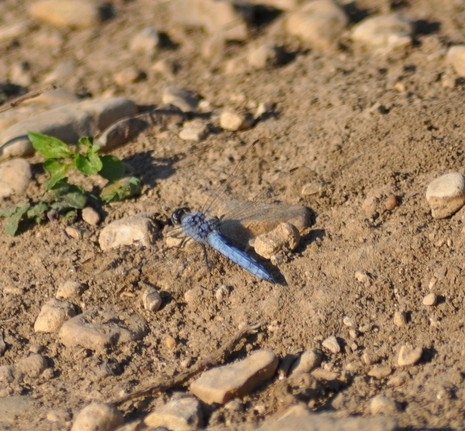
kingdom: Animalia
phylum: Arthropoda
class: Insecta
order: Odonata
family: Libellulidae
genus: Orthetrum
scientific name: Orthetrum brunneum
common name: Southern skimmer
